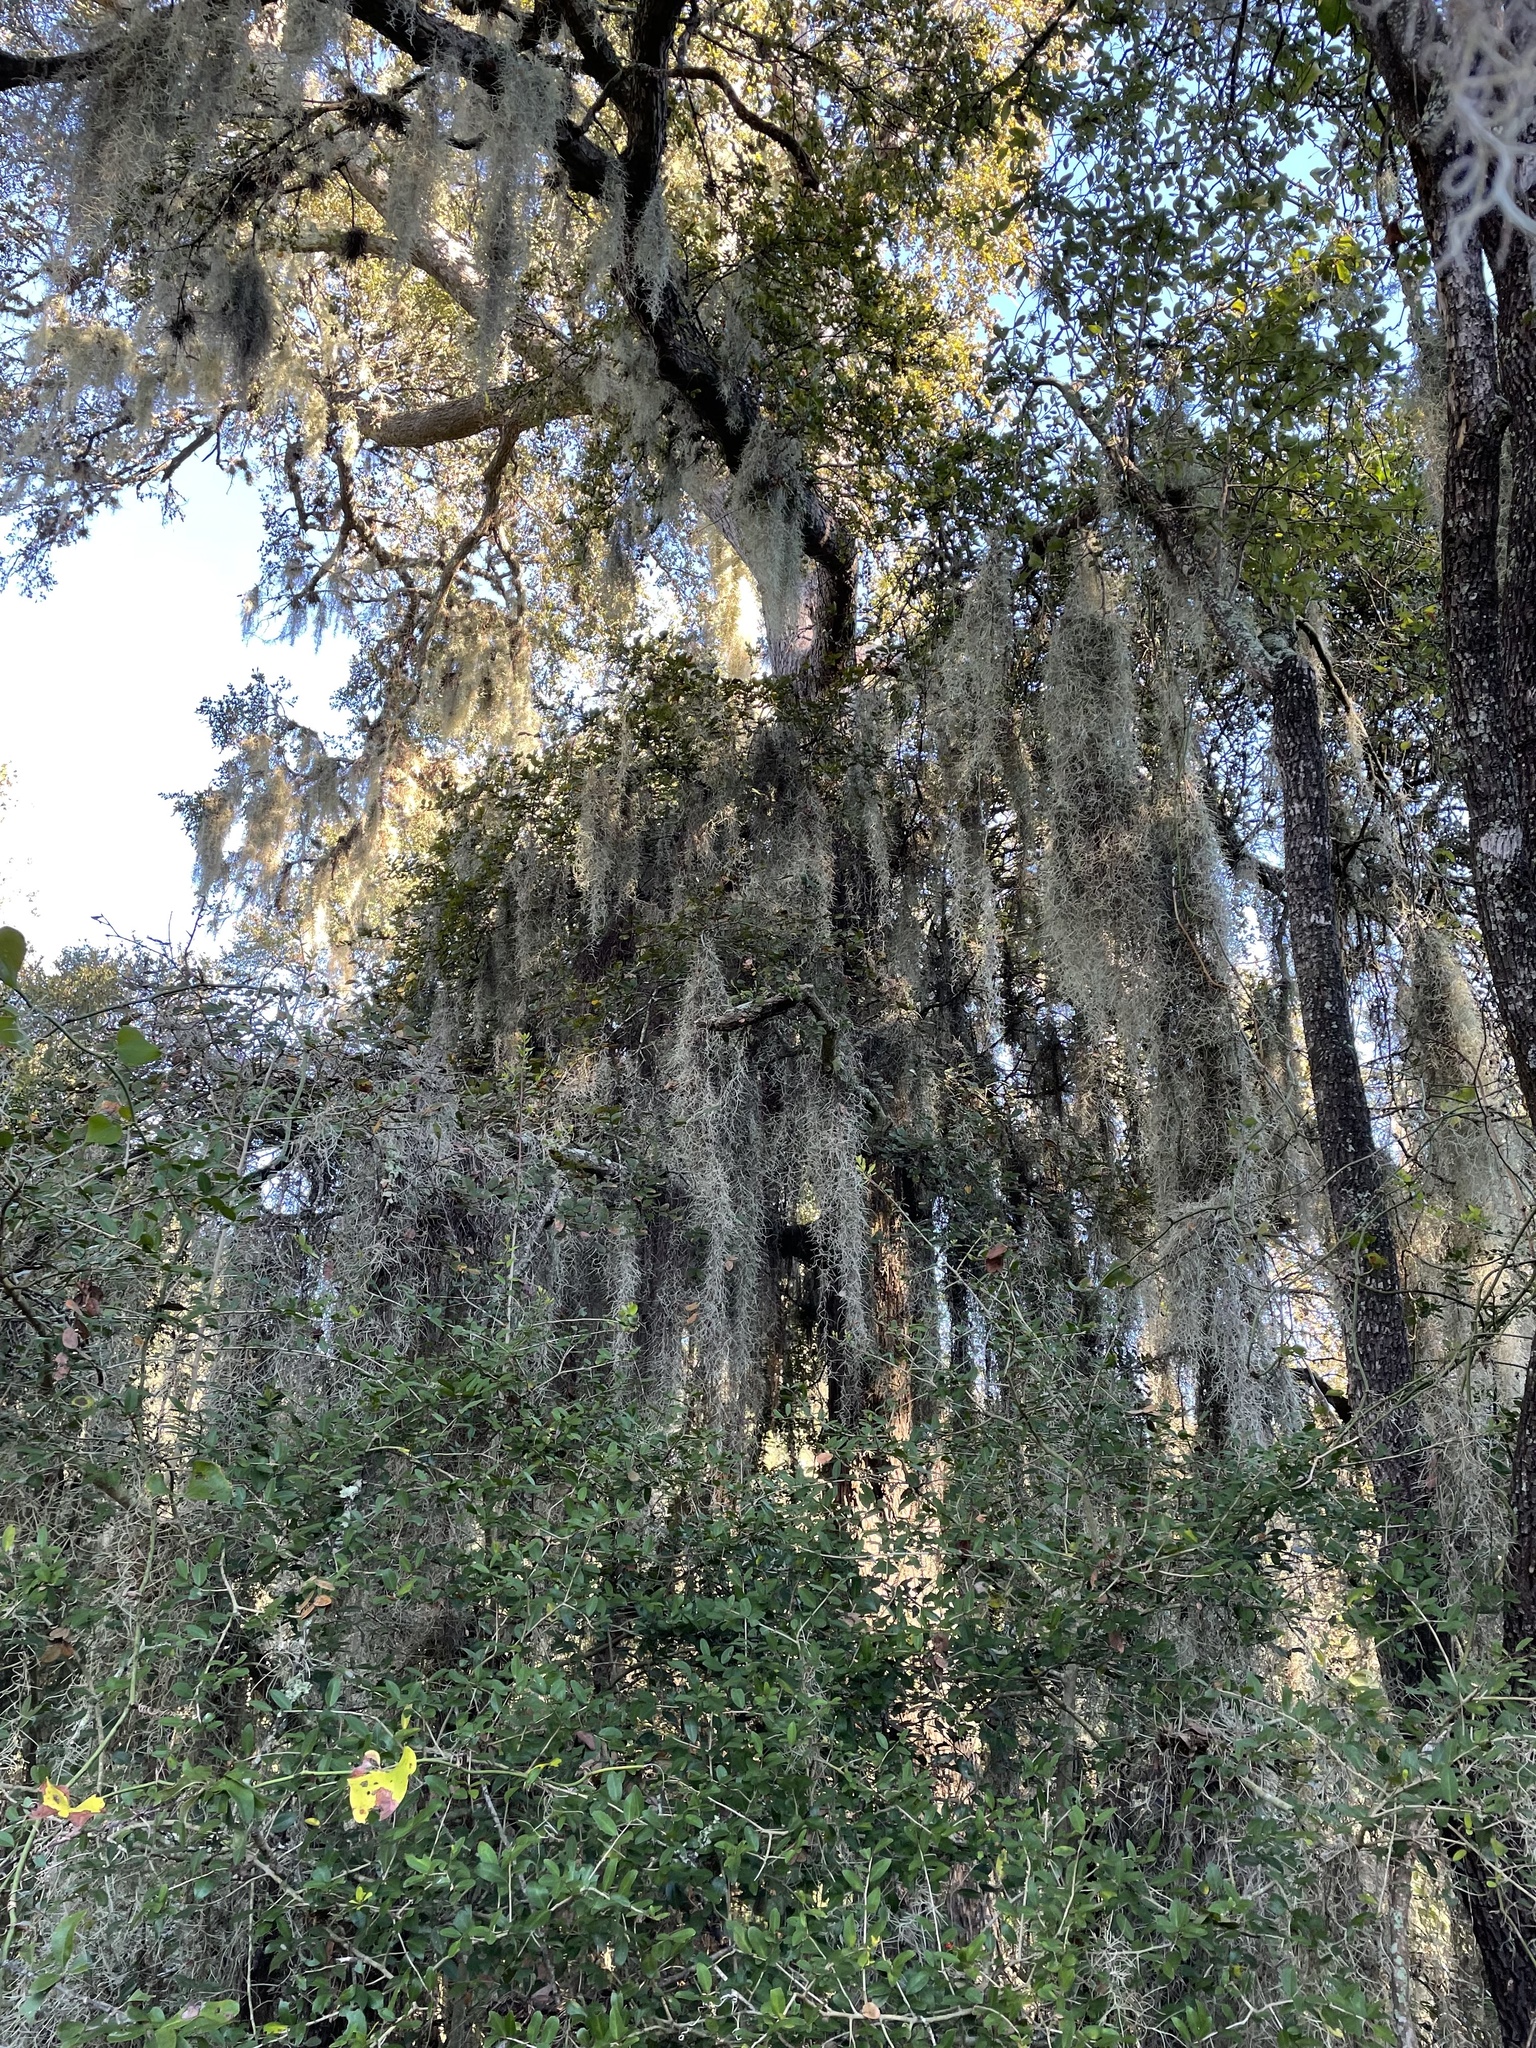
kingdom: Plantae
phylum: Tracheophyta
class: Liliopsida
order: Poales
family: Bromeliaceae
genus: Tillandsia
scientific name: Tillandsia usneoides
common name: Spanish moss
